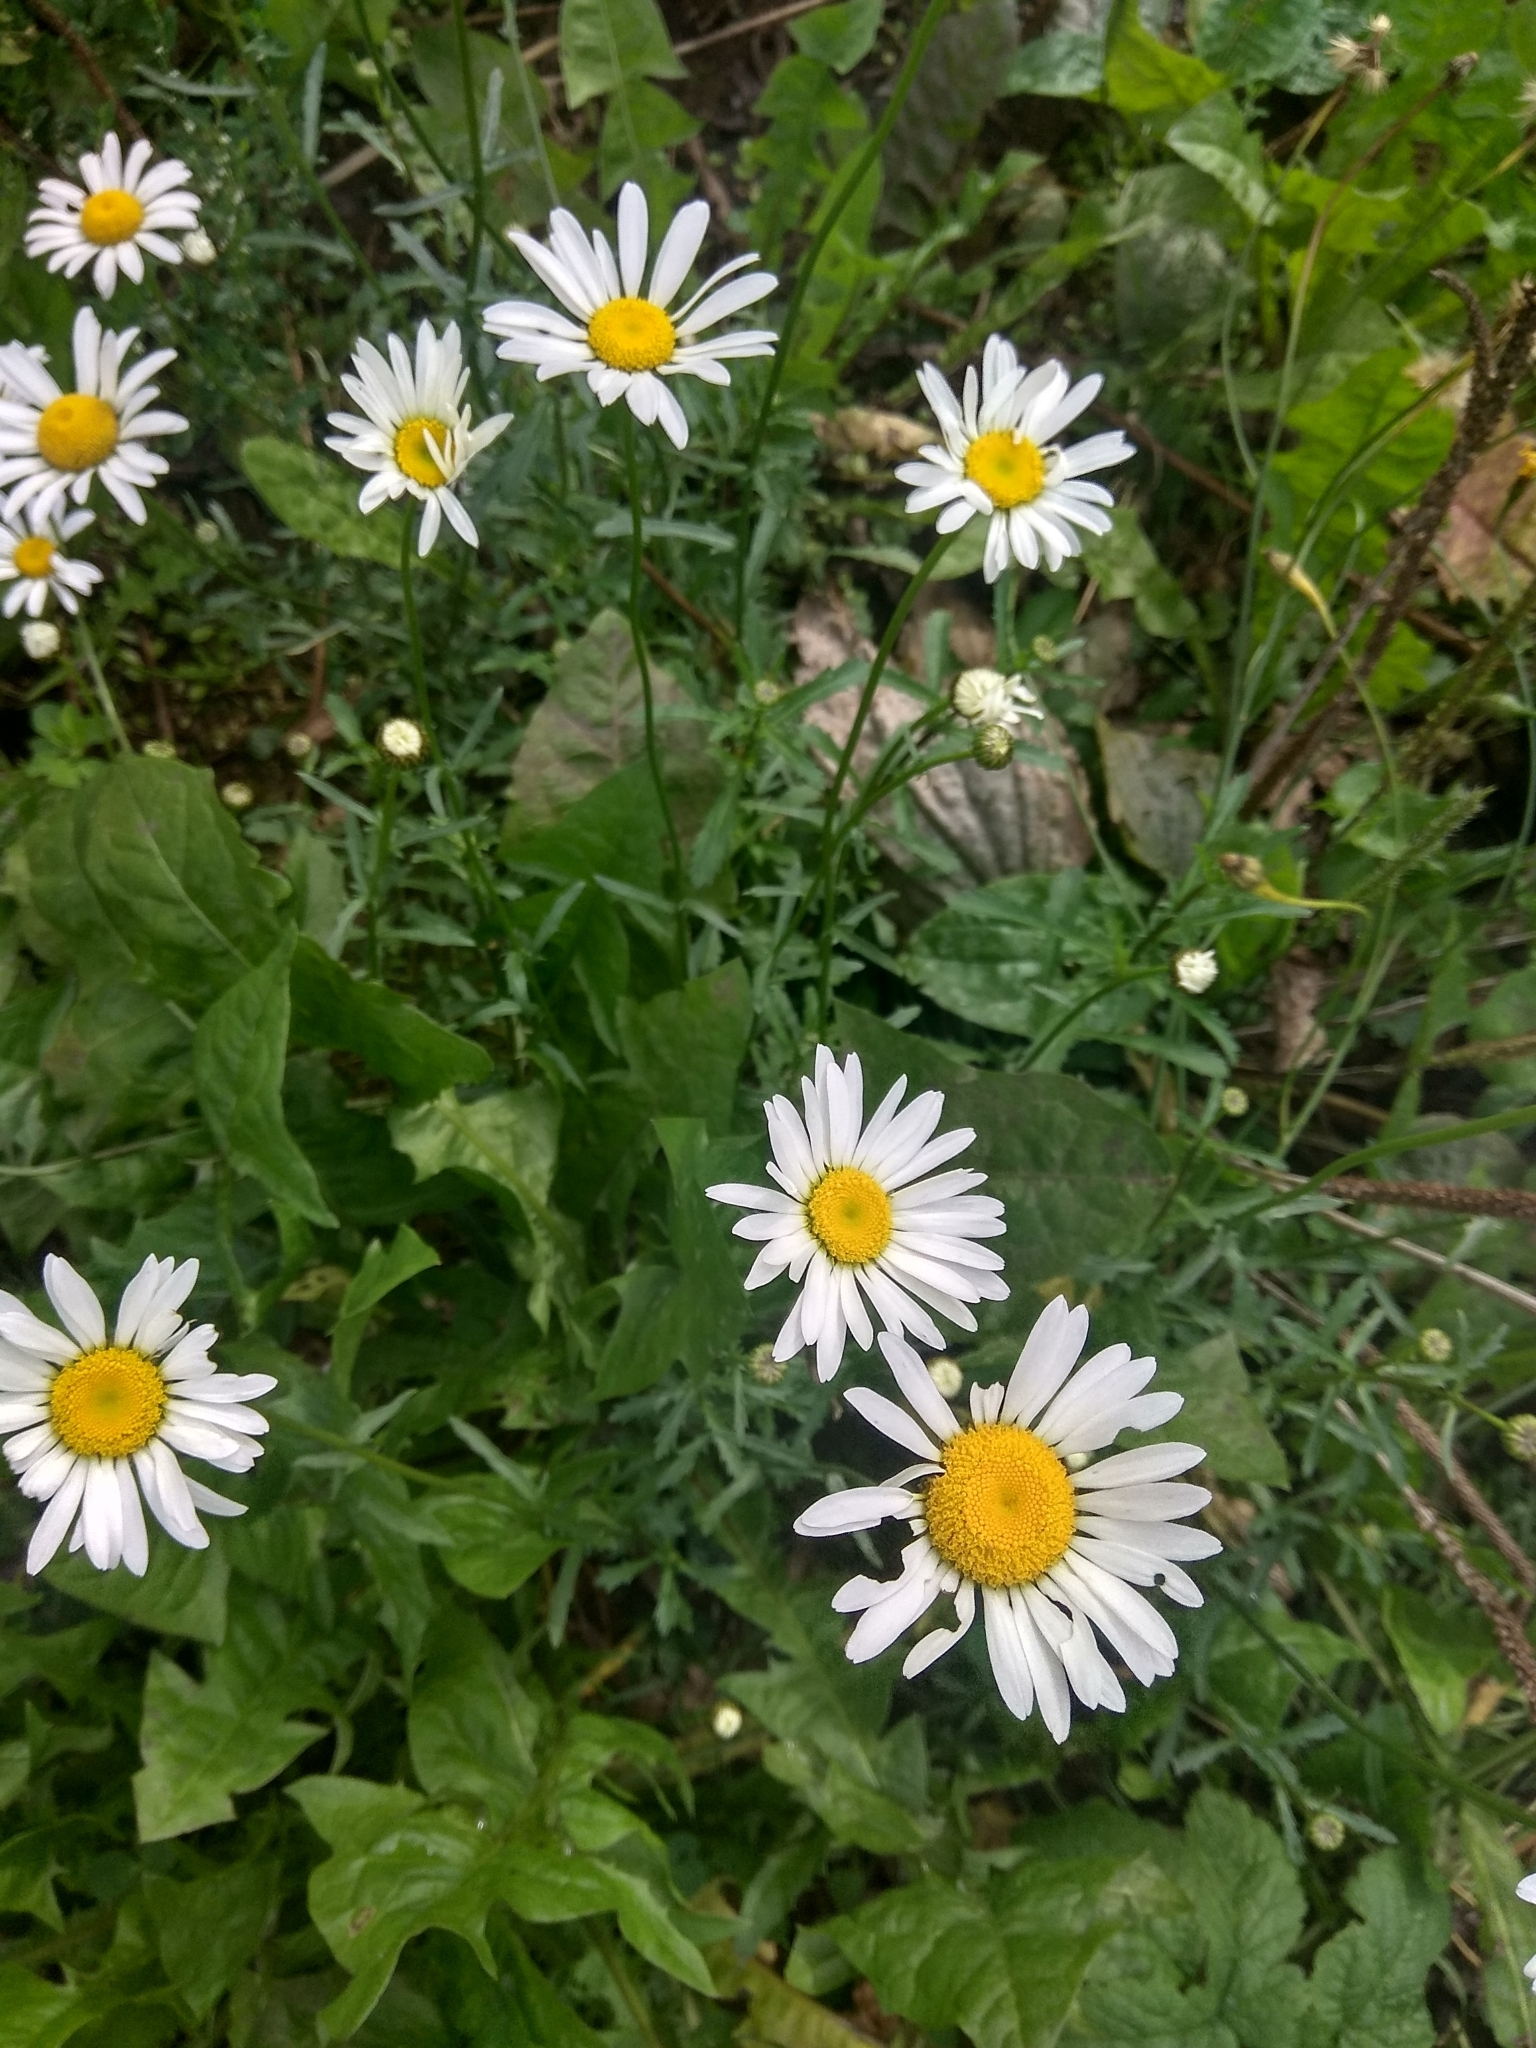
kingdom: Plantae
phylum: Tracheophyta
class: Magnoliopsida
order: Asterales
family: Asteraceae
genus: Leucanthemum
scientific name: Leucanthemum vulgare
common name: Oxeye daisy
